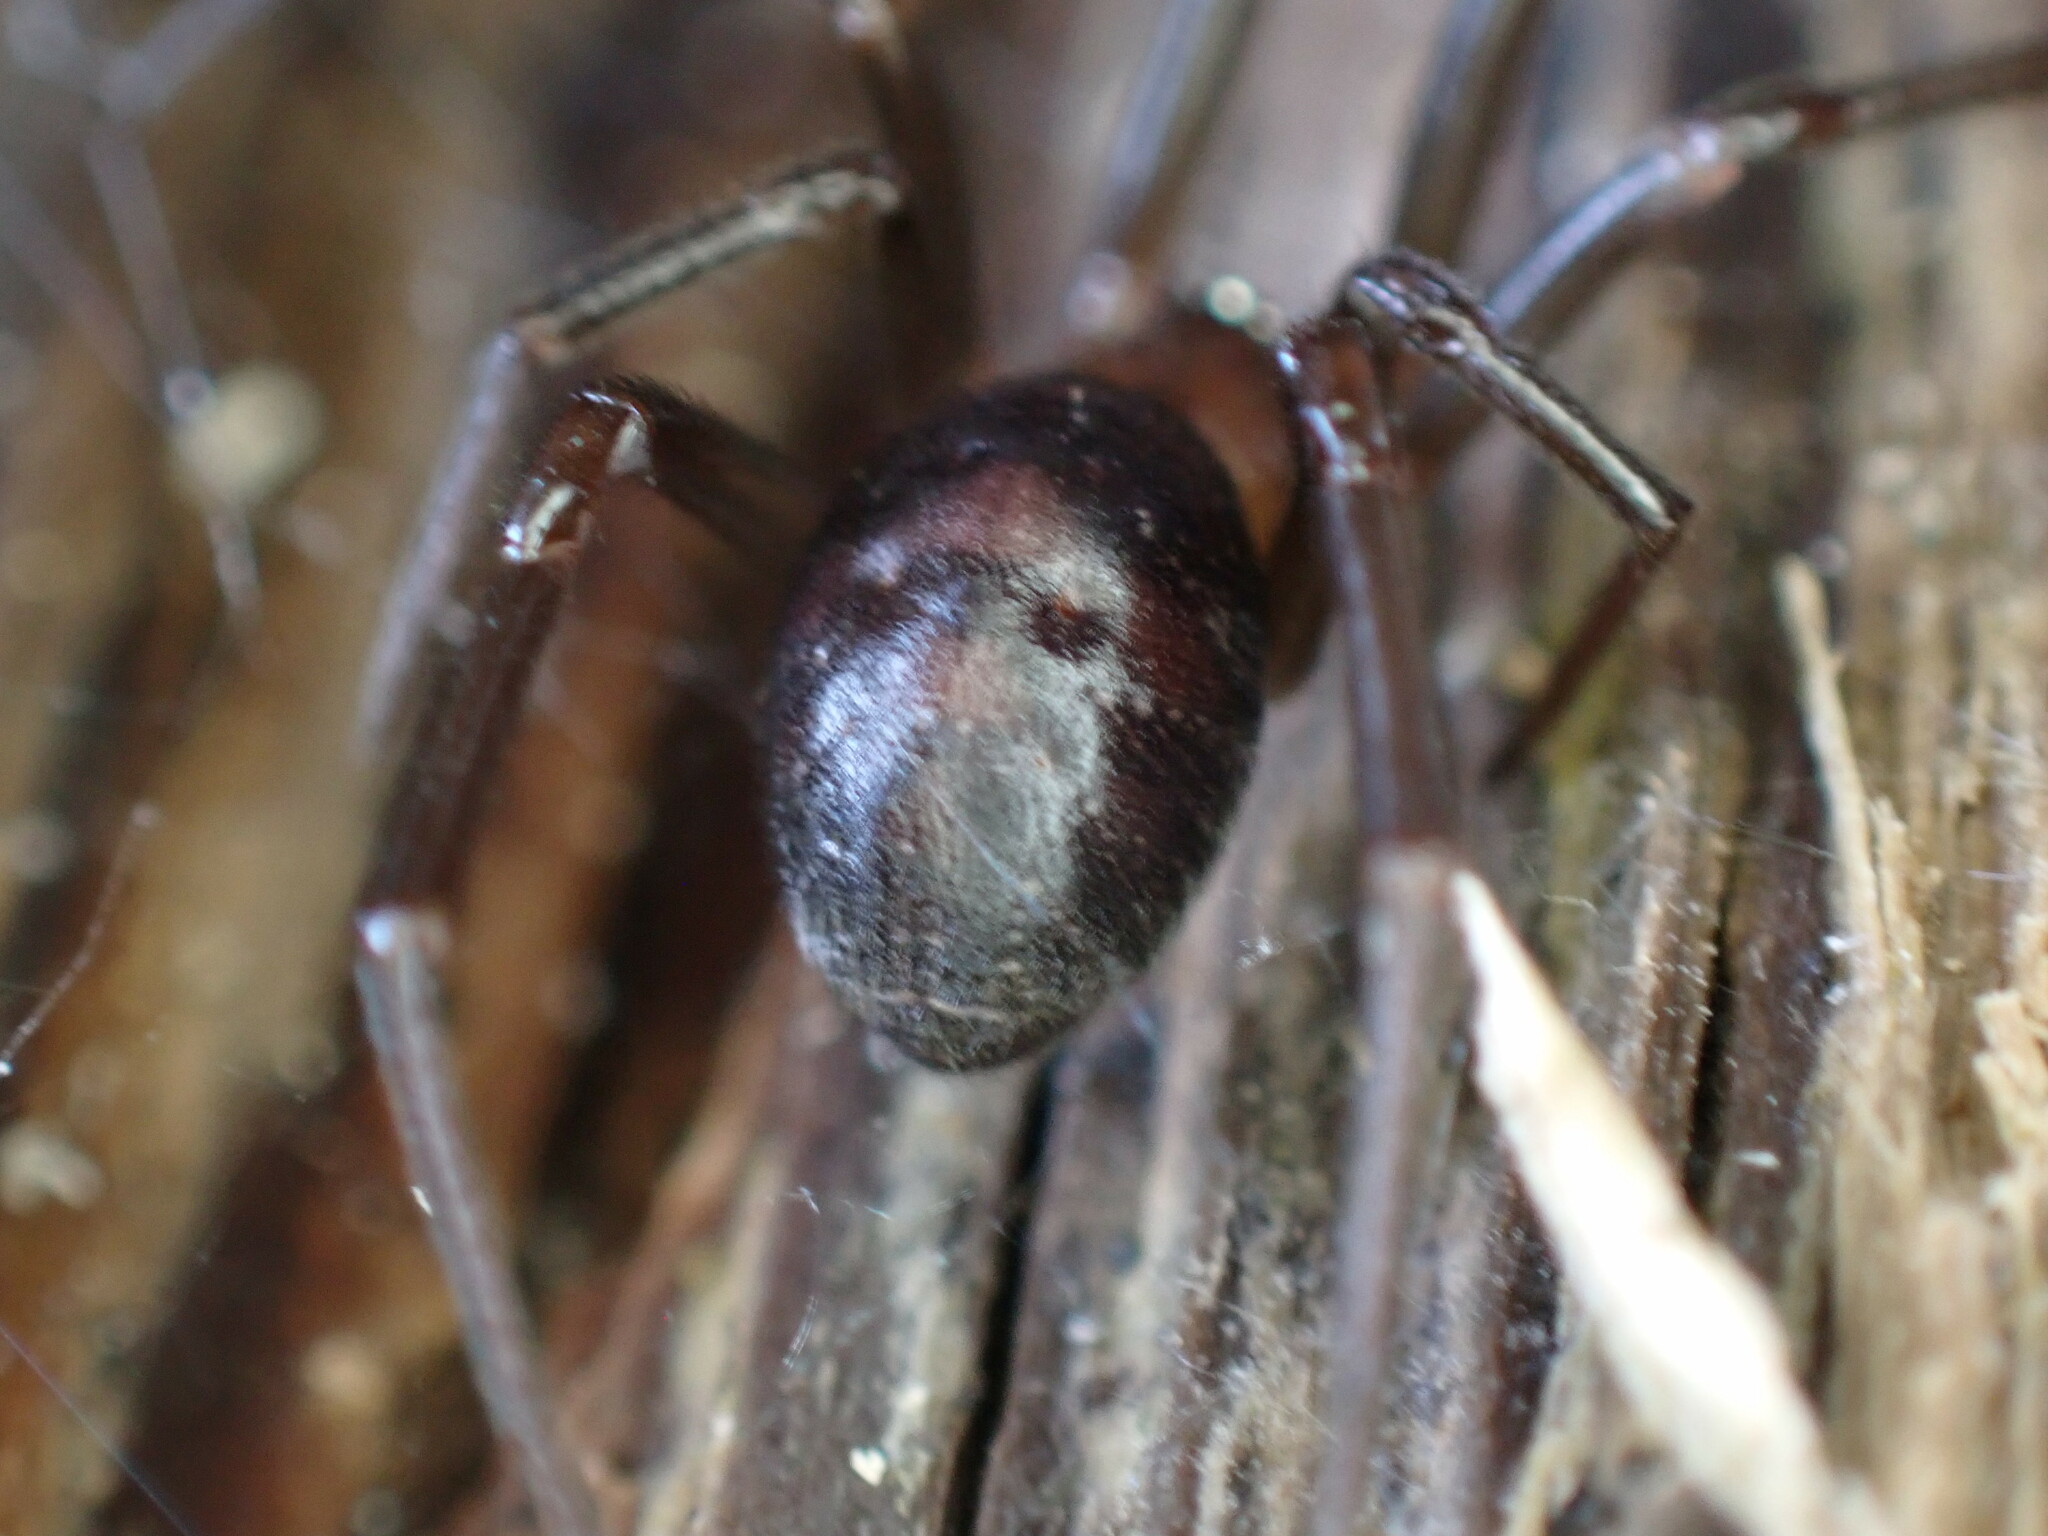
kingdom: Animalia
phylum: Arthropoda
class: Arachnida
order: Araneae
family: Theridiidae
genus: Steatoda
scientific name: Steatoda grossa
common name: False black widow
